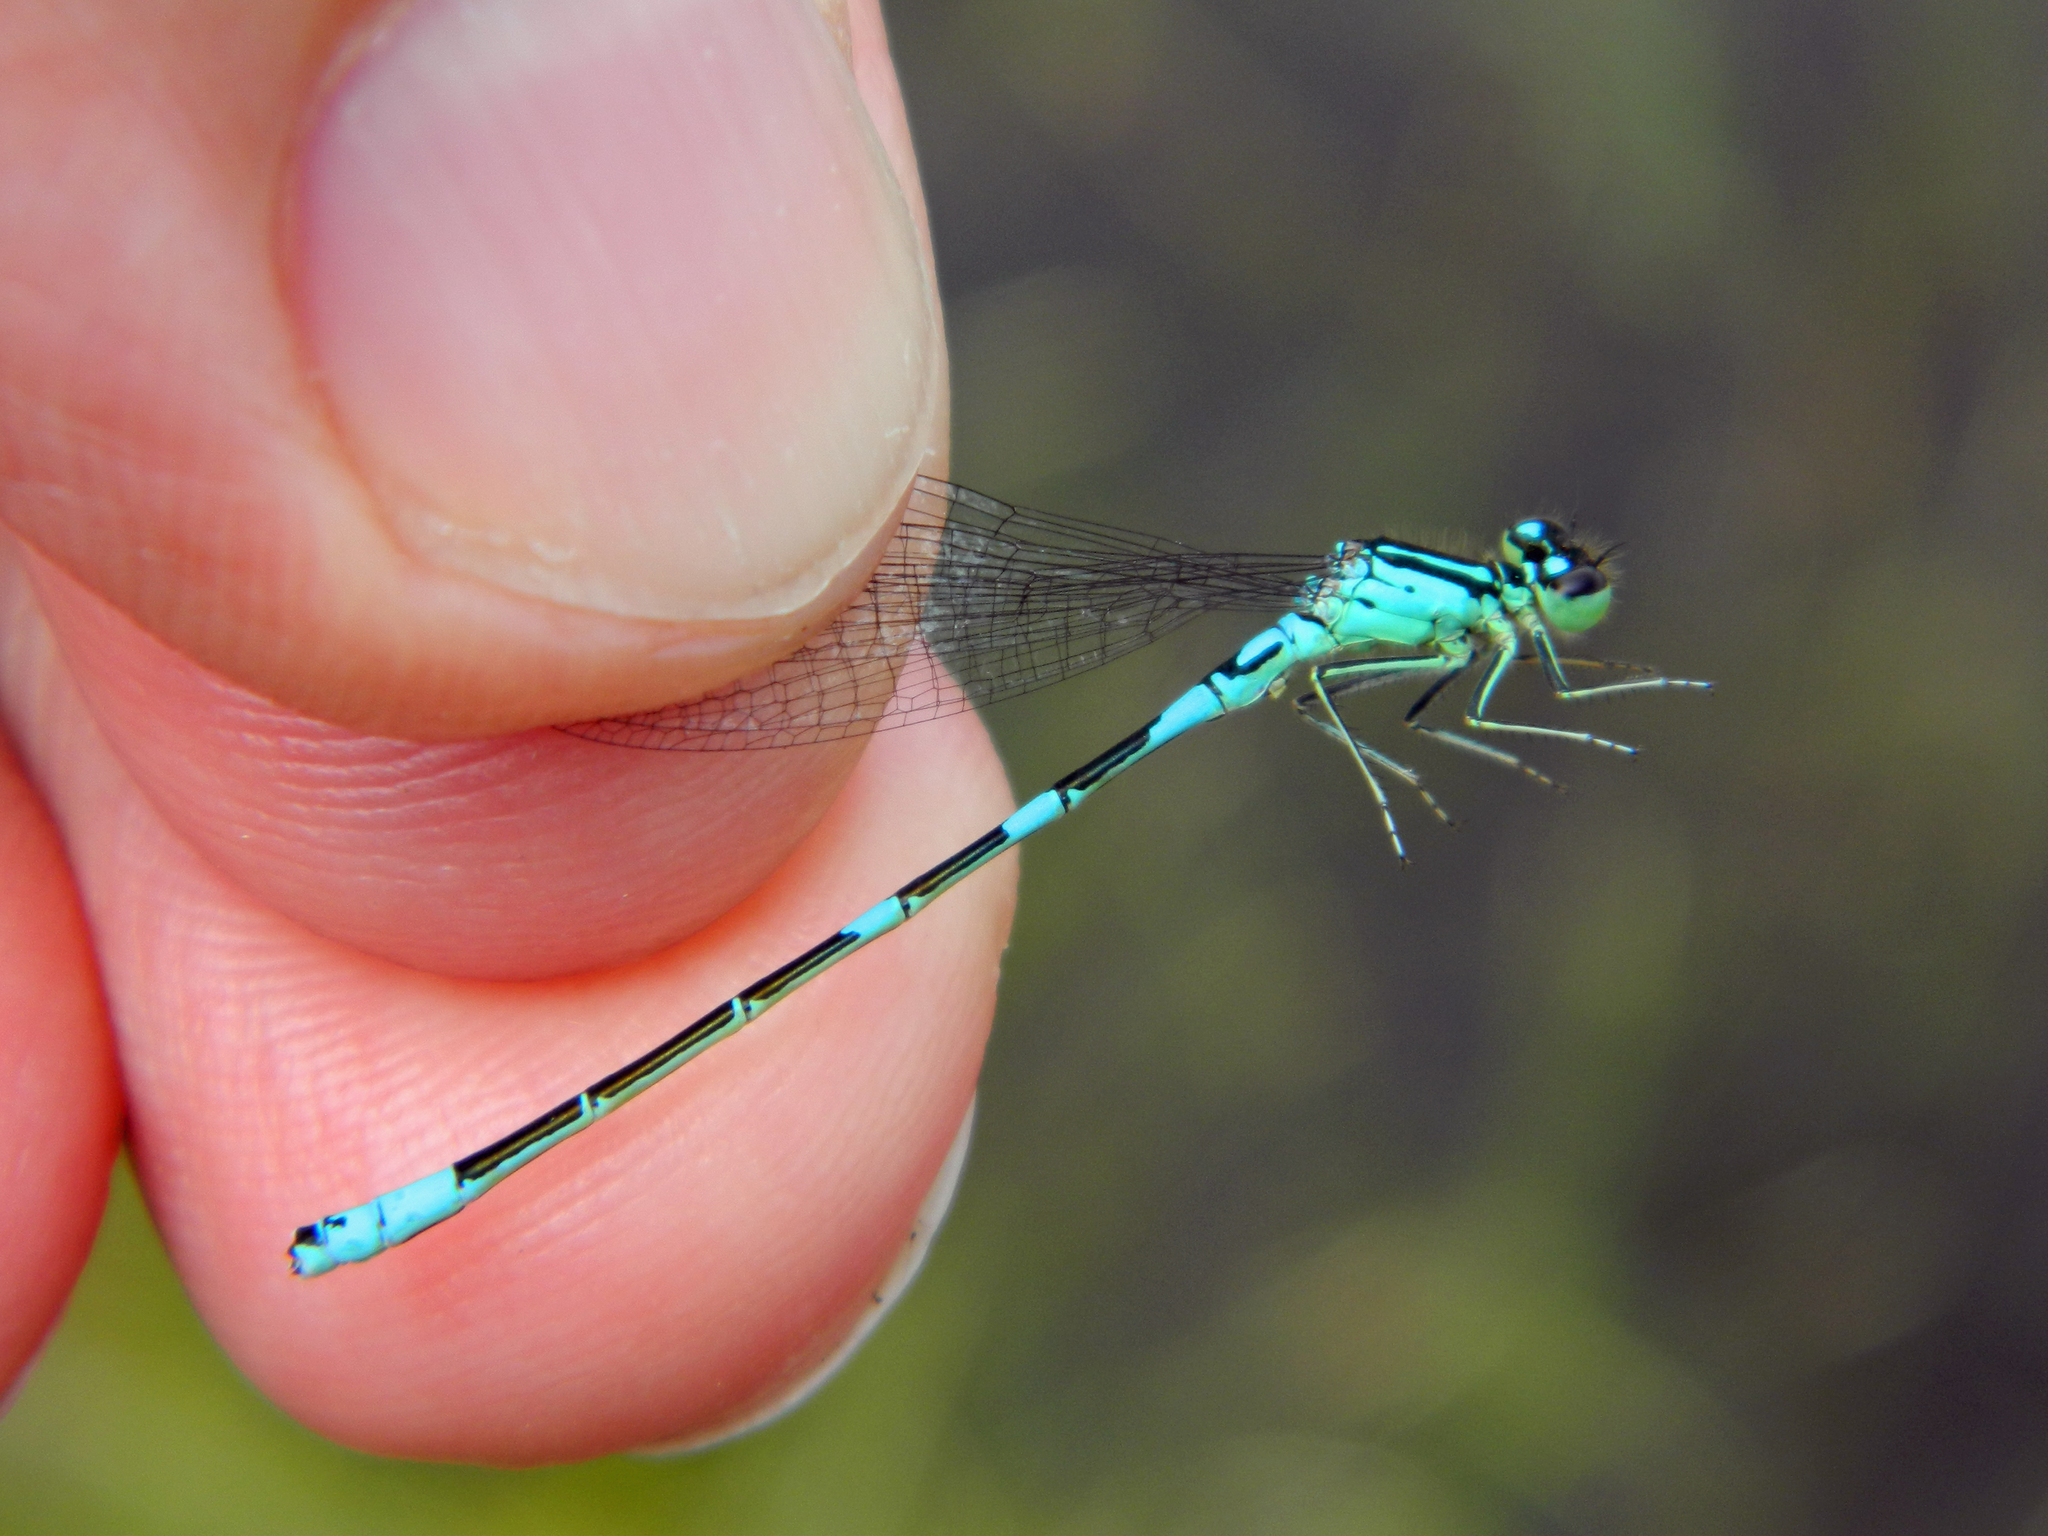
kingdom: Animalia
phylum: Arthropoda
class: Insecta
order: Odonata
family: Coenagrionidae
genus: Coenagrion
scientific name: Coenagrion resolutum
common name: Taiga bluet
